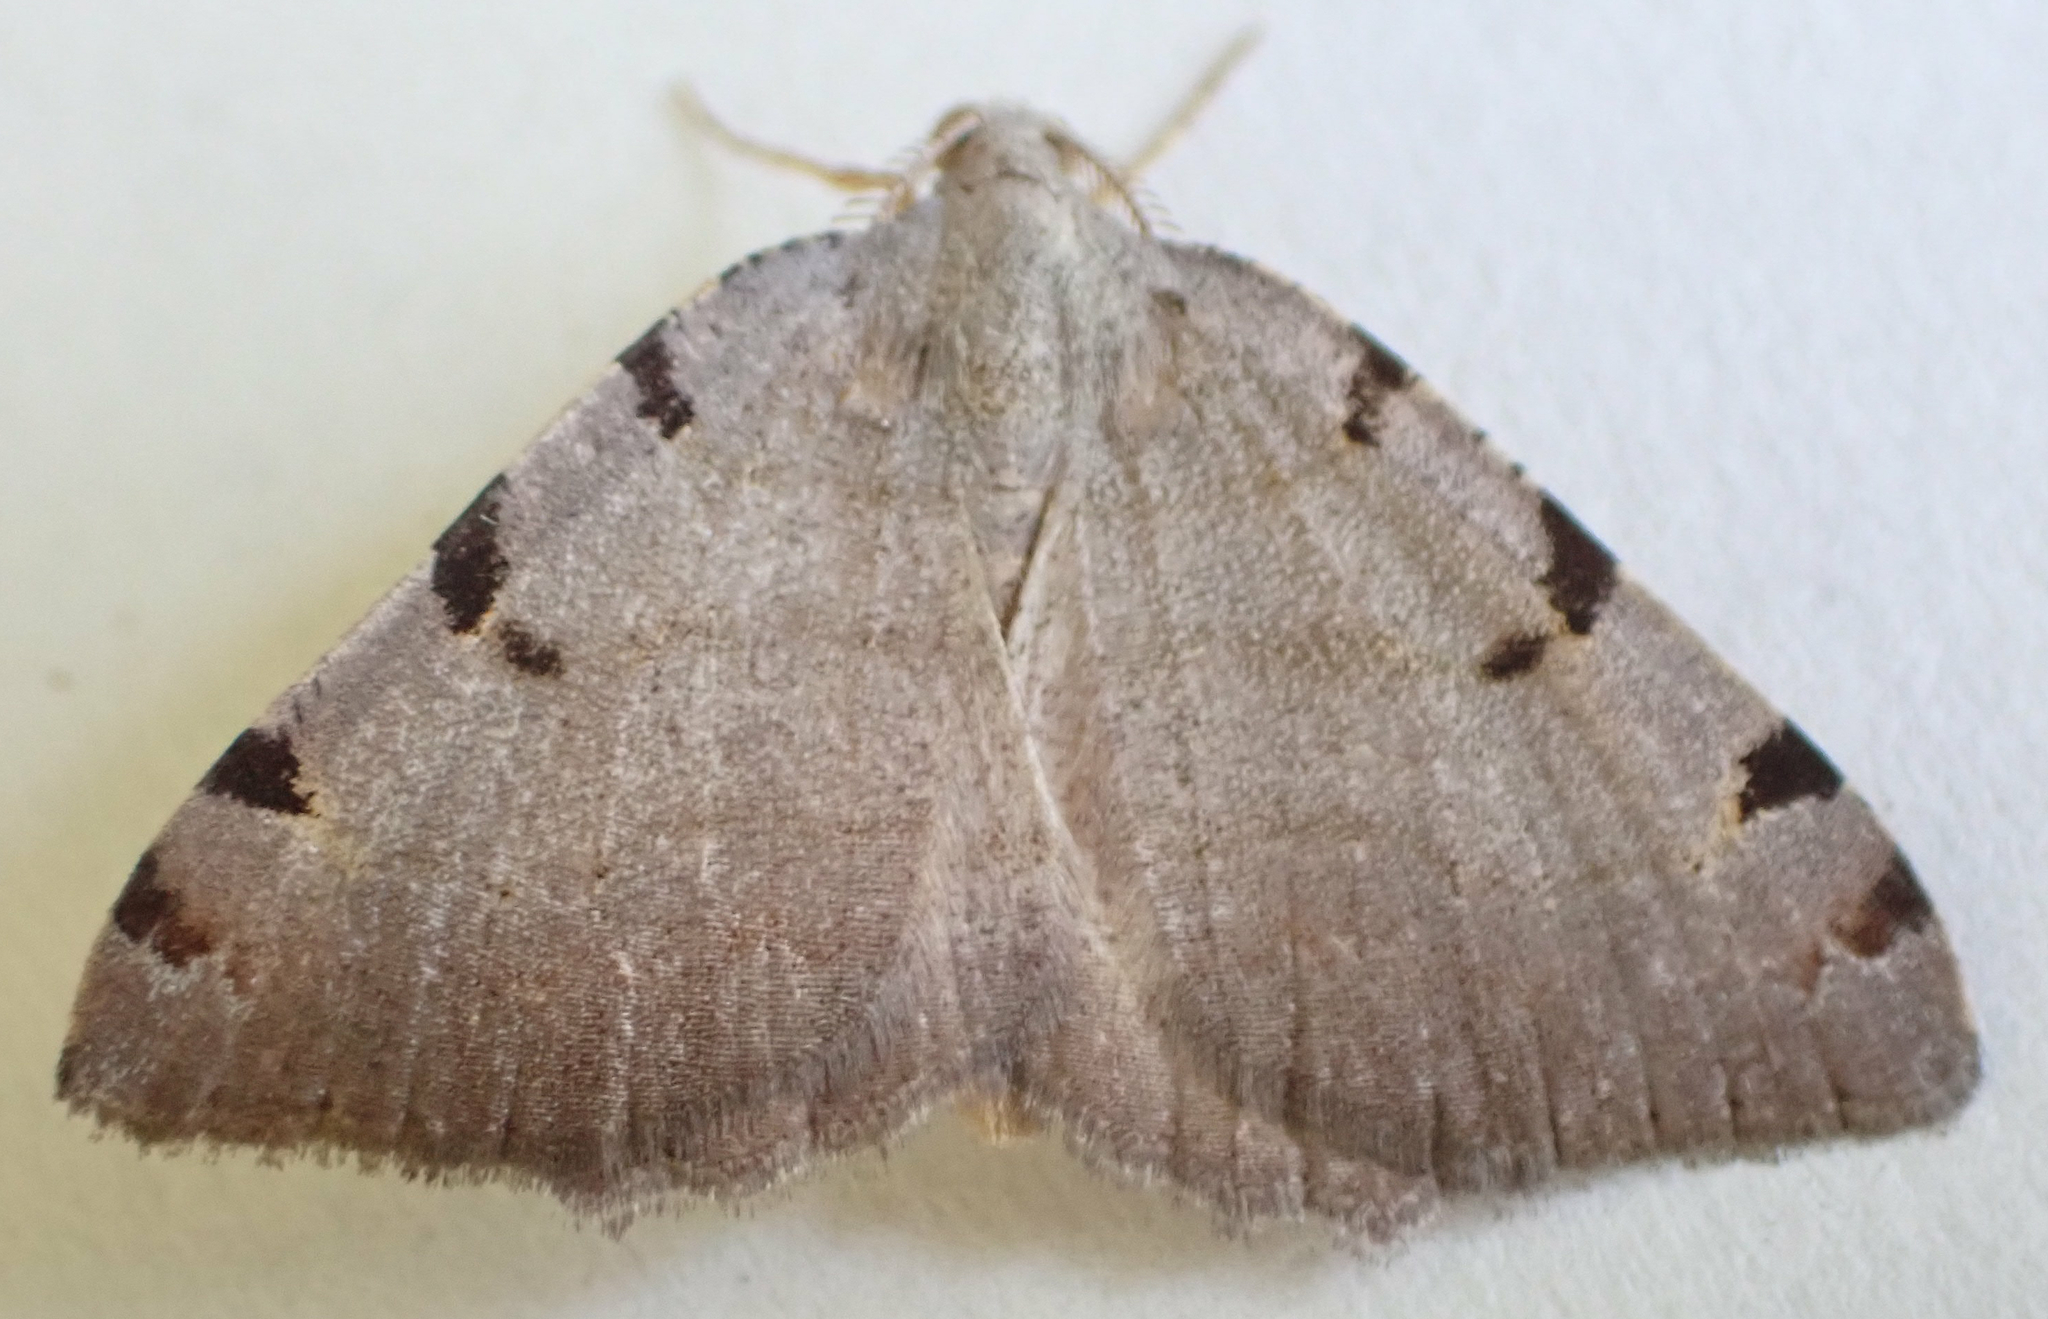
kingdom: Animalia
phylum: Arthropoda
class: Insecta
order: Lepidoptera
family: Geometridae
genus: Macaria
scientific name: Macaria coortaria
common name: Four-spotted granite
